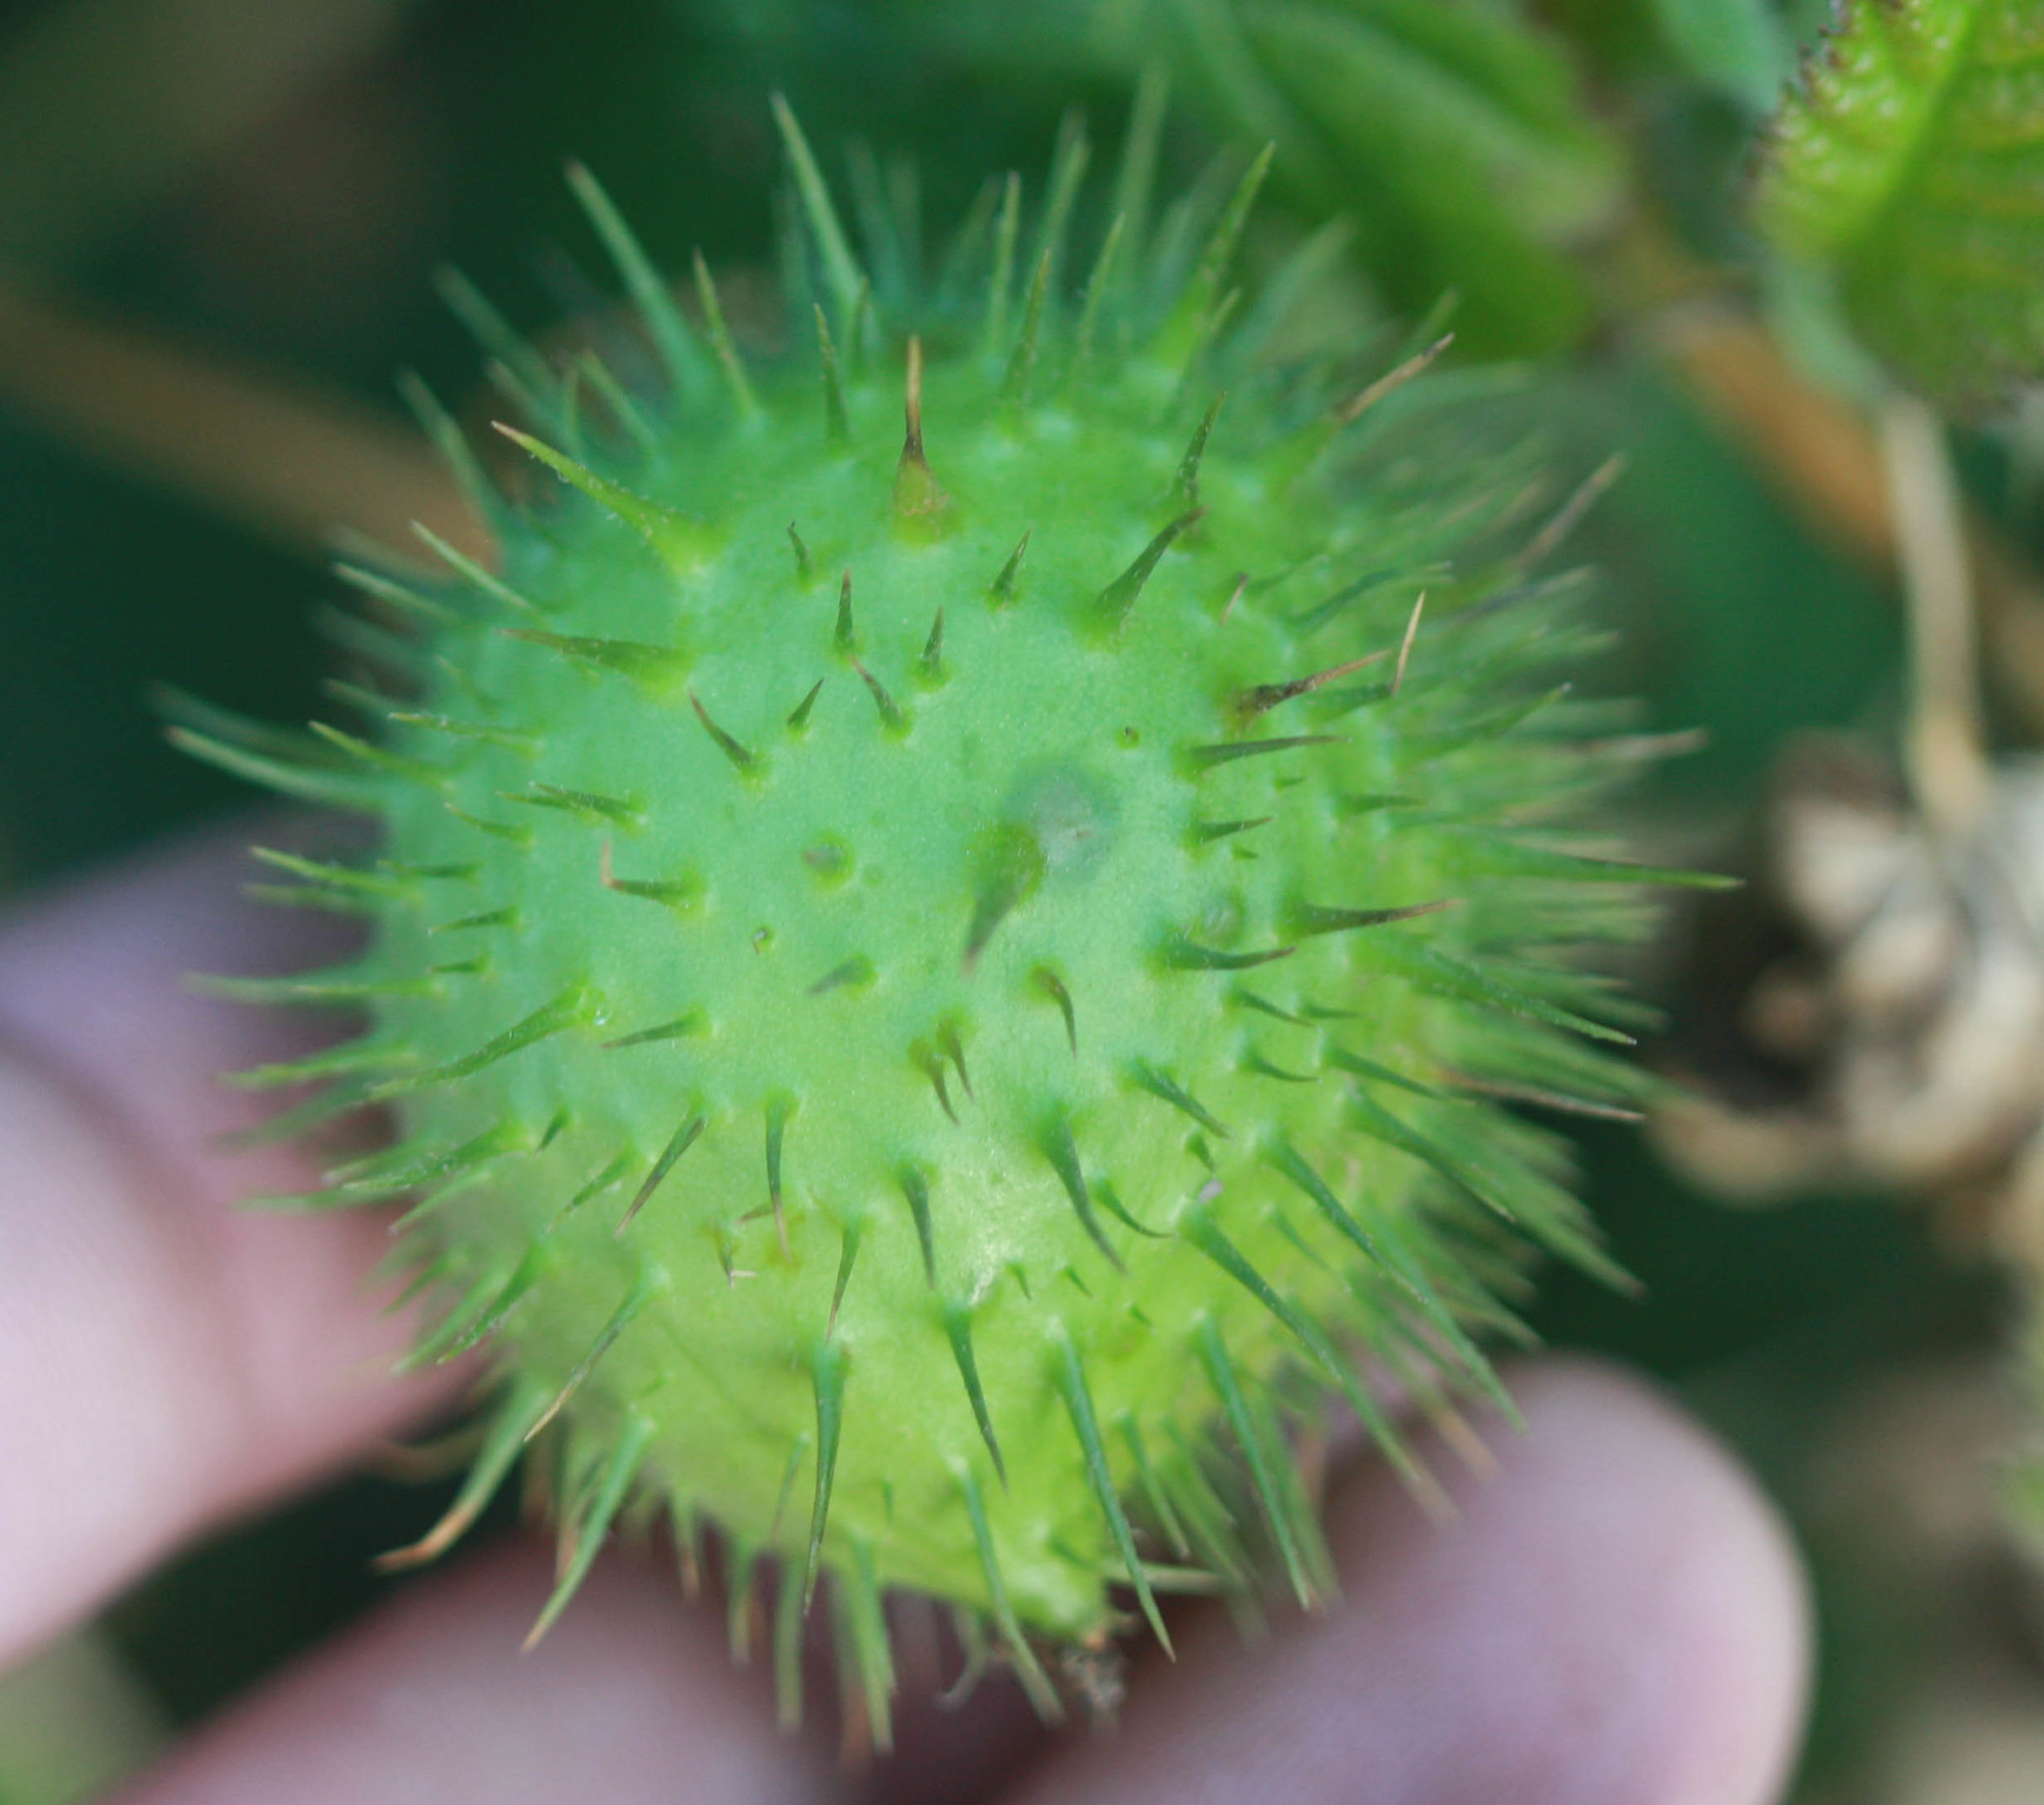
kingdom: Plantae
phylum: Tracheophyta
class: Magnoliopsida
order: Cucurbitales
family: Cucurbitaceae
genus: Marah
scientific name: Marah fabacea
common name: California manroot
